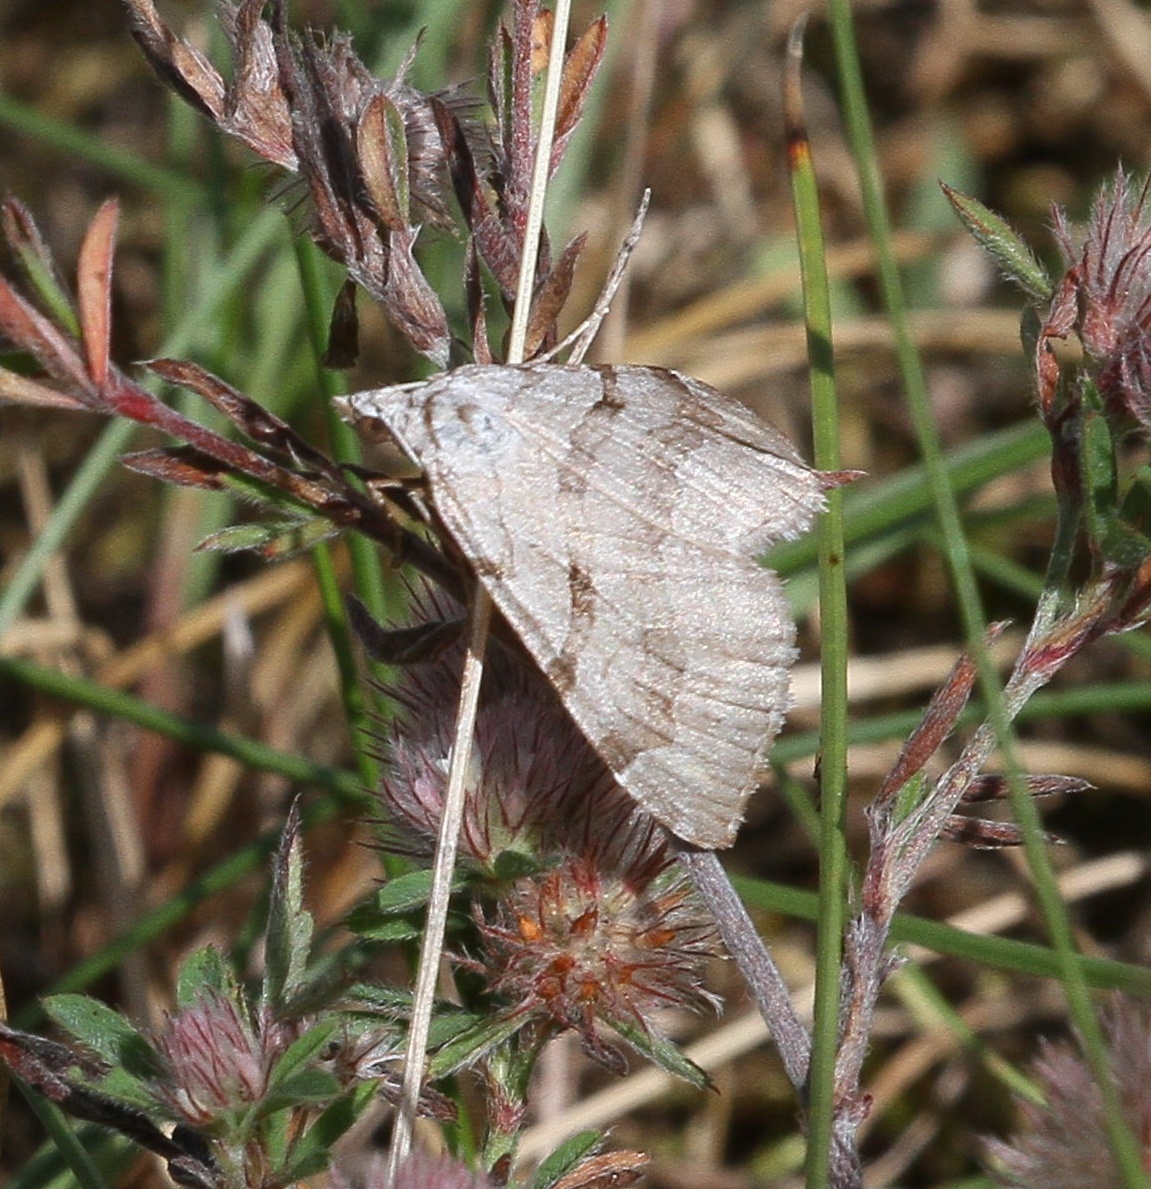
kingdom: Animalia
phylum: Arthropoda
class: Insecta
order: Lepidoptera
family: Geometridae
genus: Aplocera
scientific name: Aplocera plagiata
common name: Treble-bar
